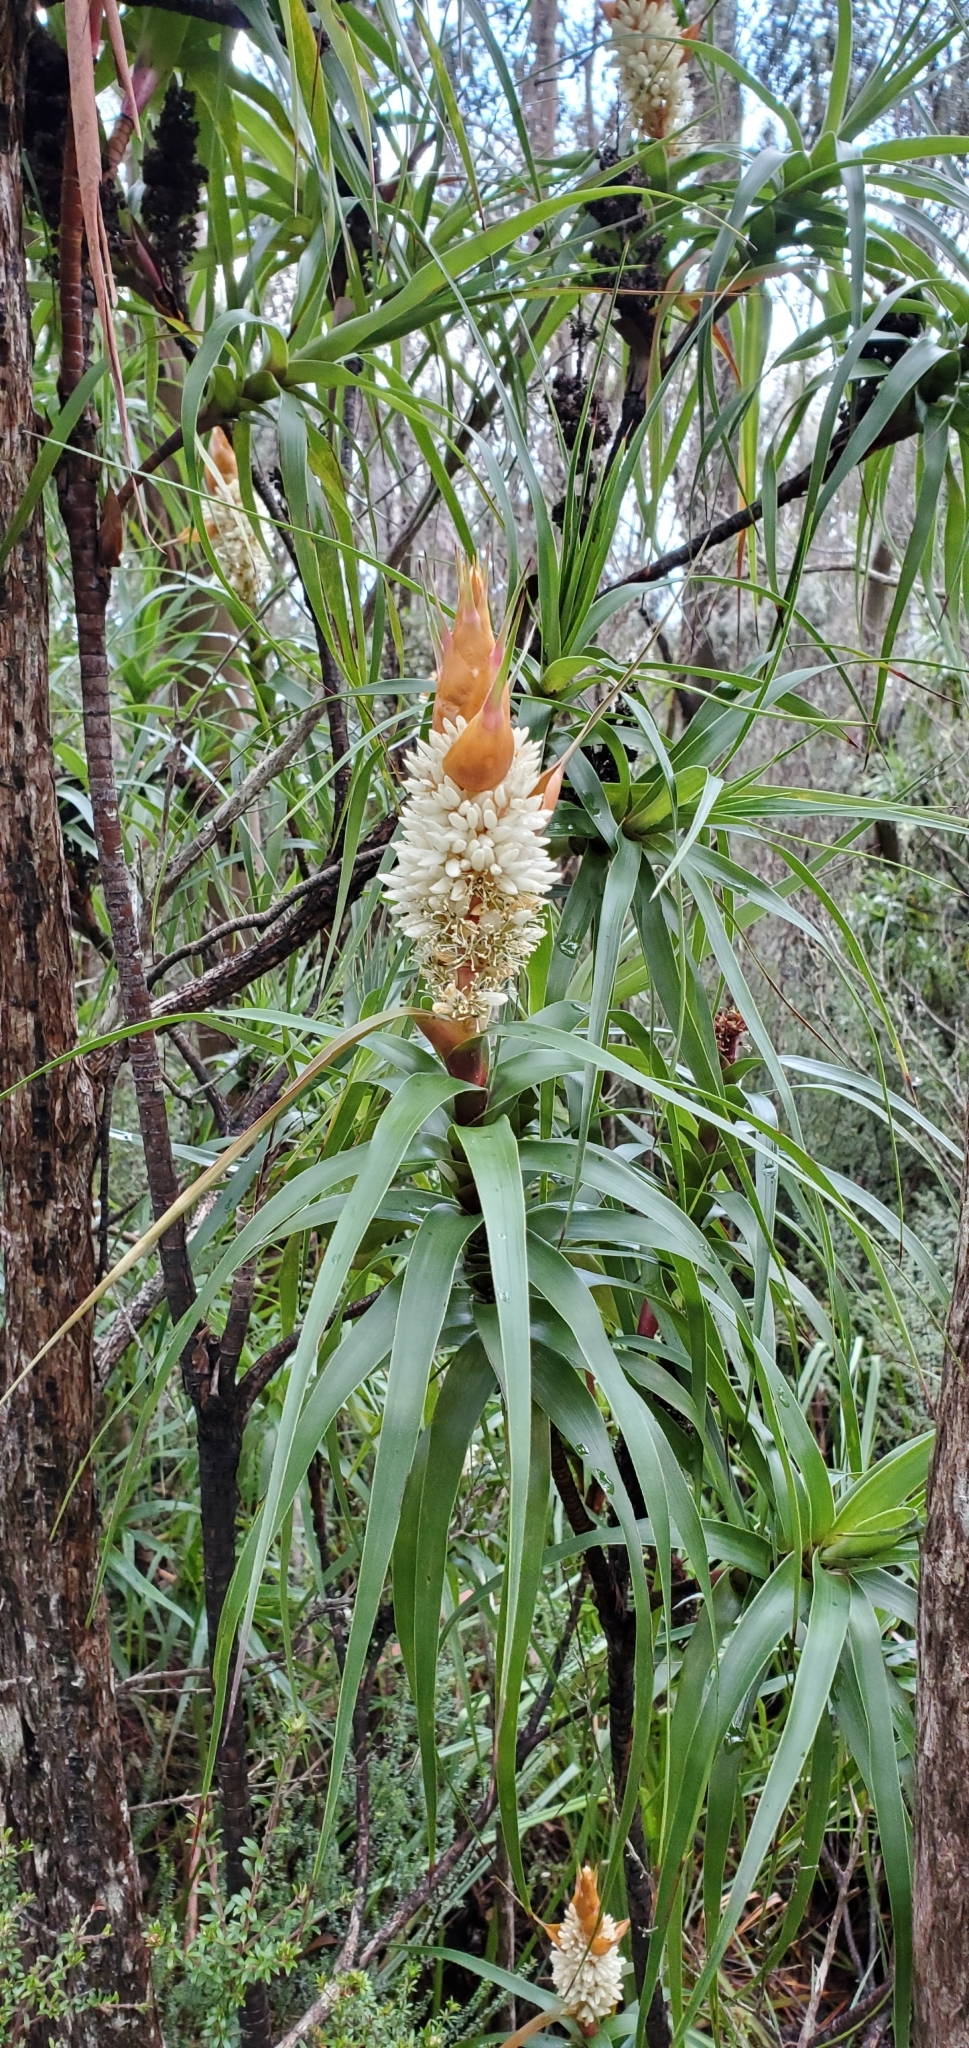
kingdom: Plantae
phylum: Tracheophyta
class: Magnoliopsida
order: Ericales
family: Ericaceae
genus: Dracophyllum
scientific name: Dracophyllum desgrazii
